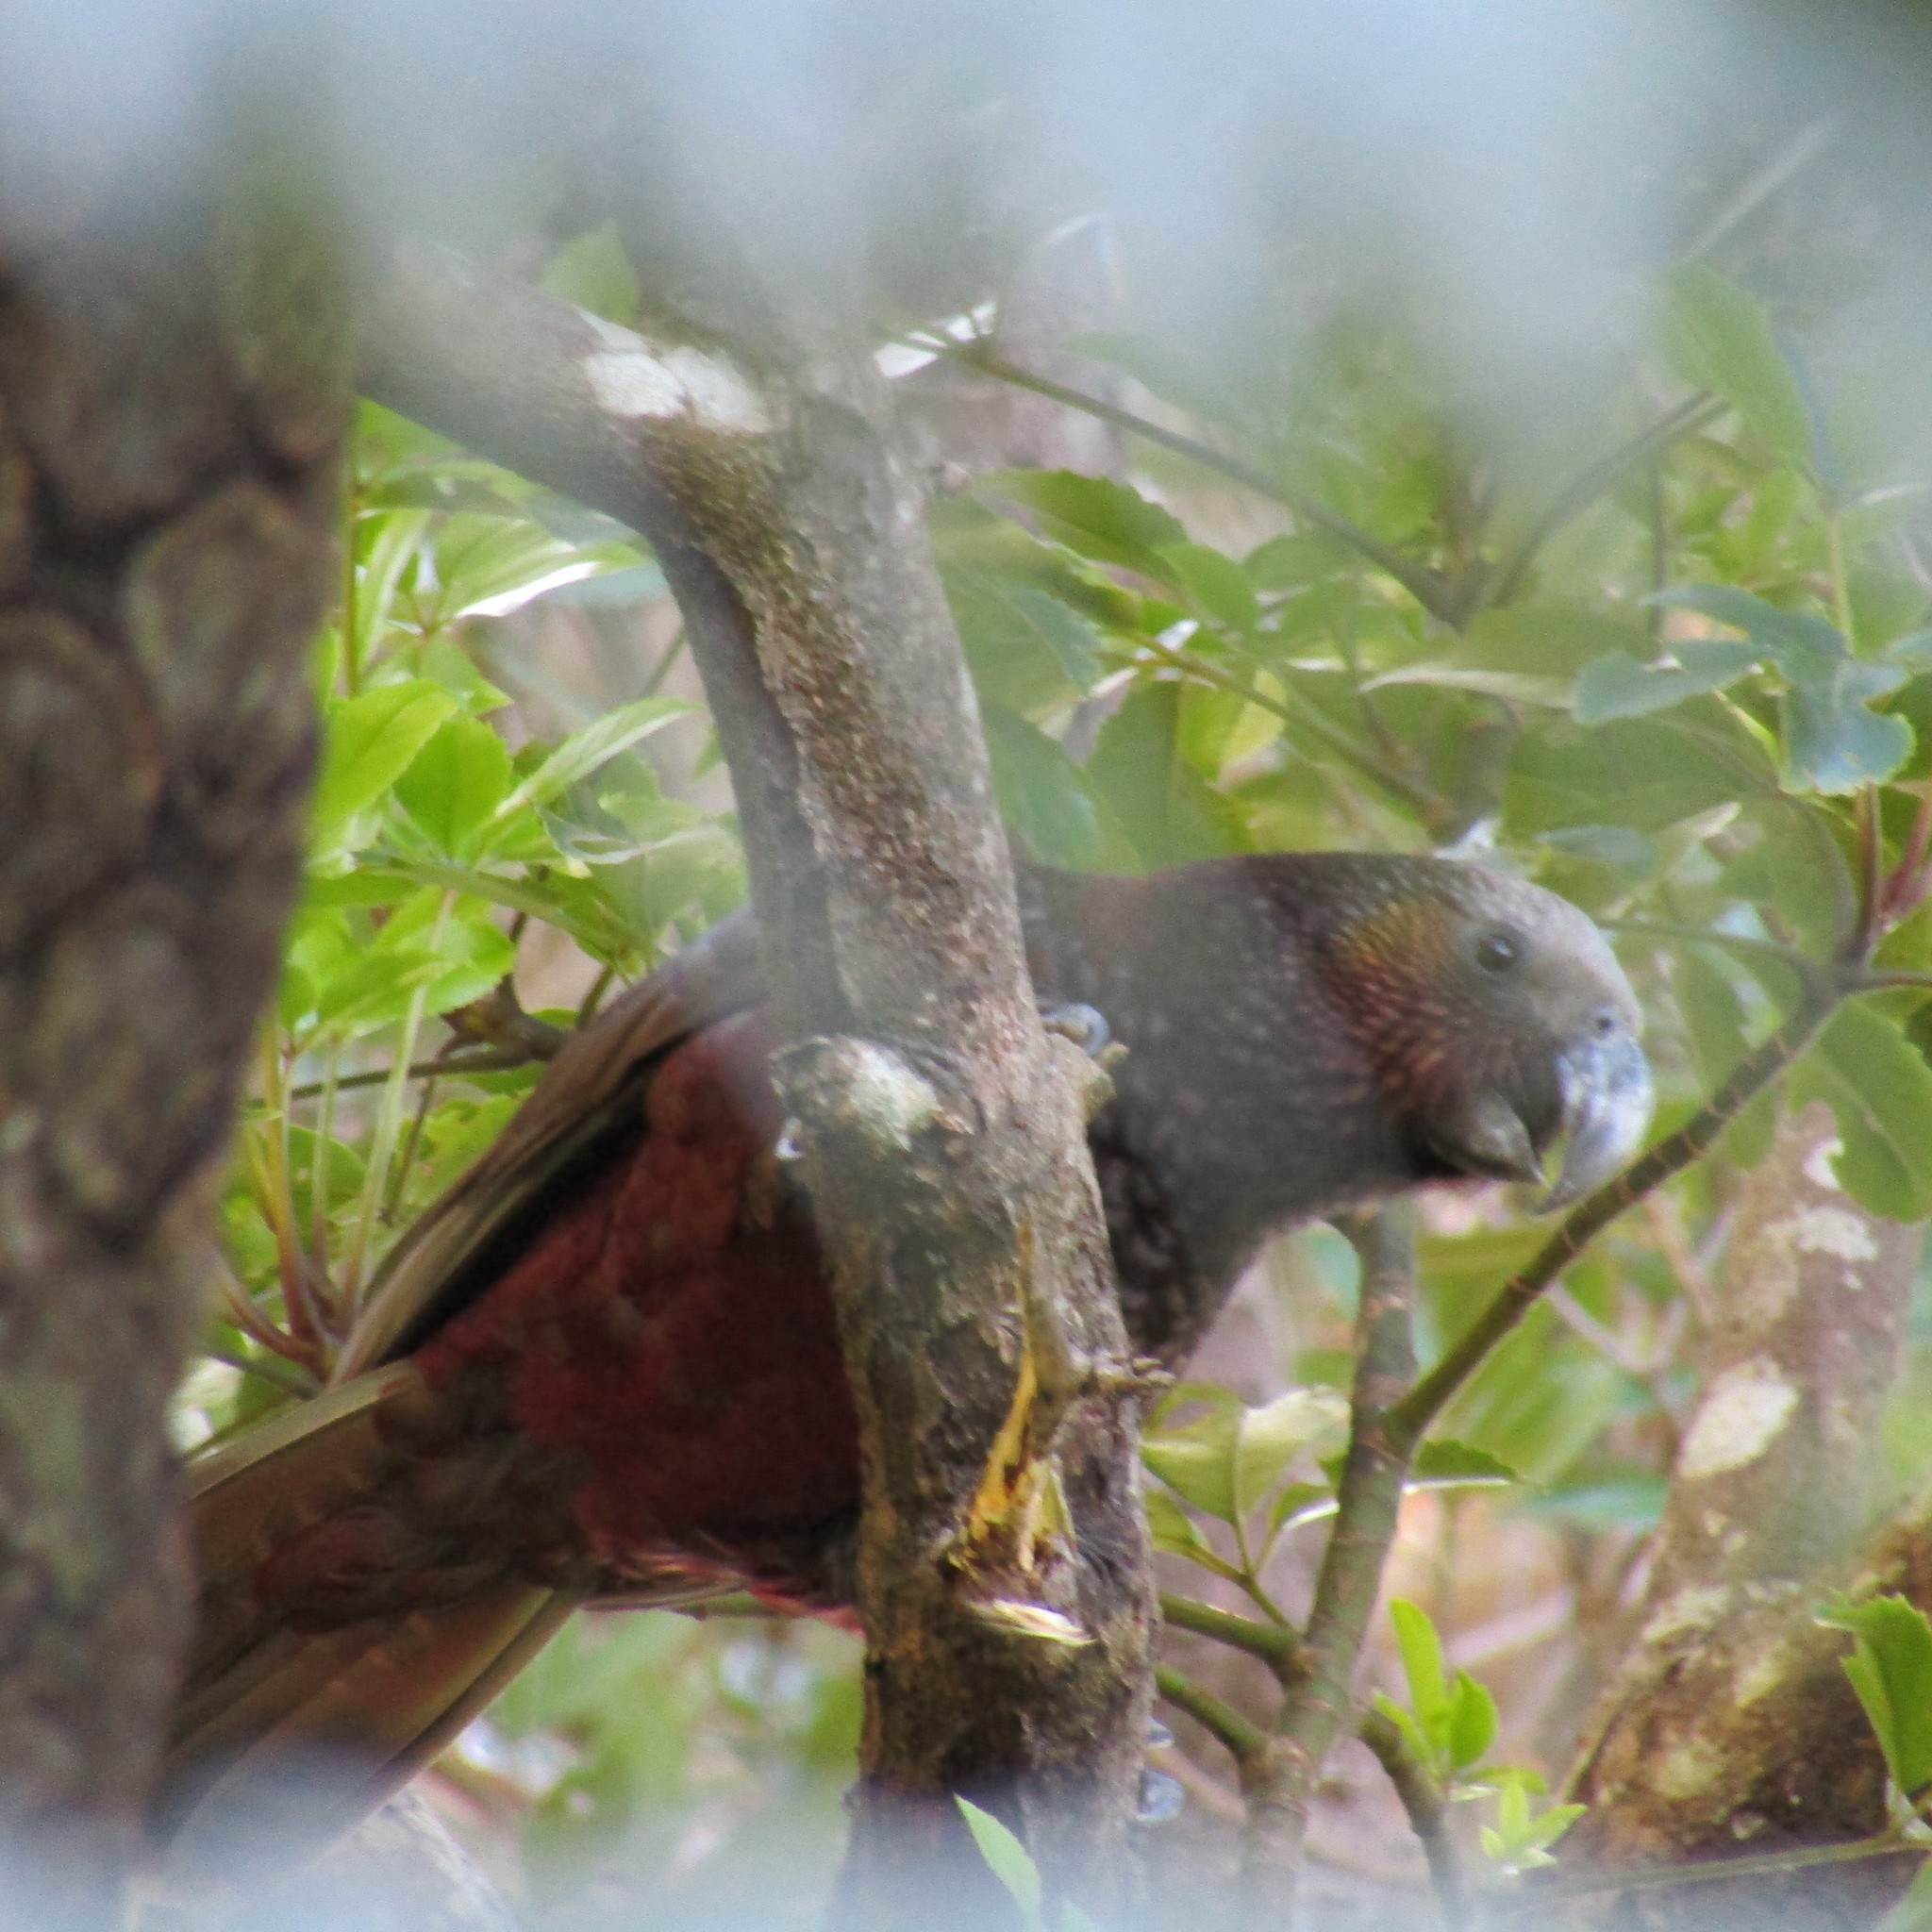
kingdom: Animalia
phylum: Chordata
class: Aves
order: Psittaciformes
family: Psittacidae
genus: Nestor
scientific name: Nestor meridionalis
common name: New zealand kaka
